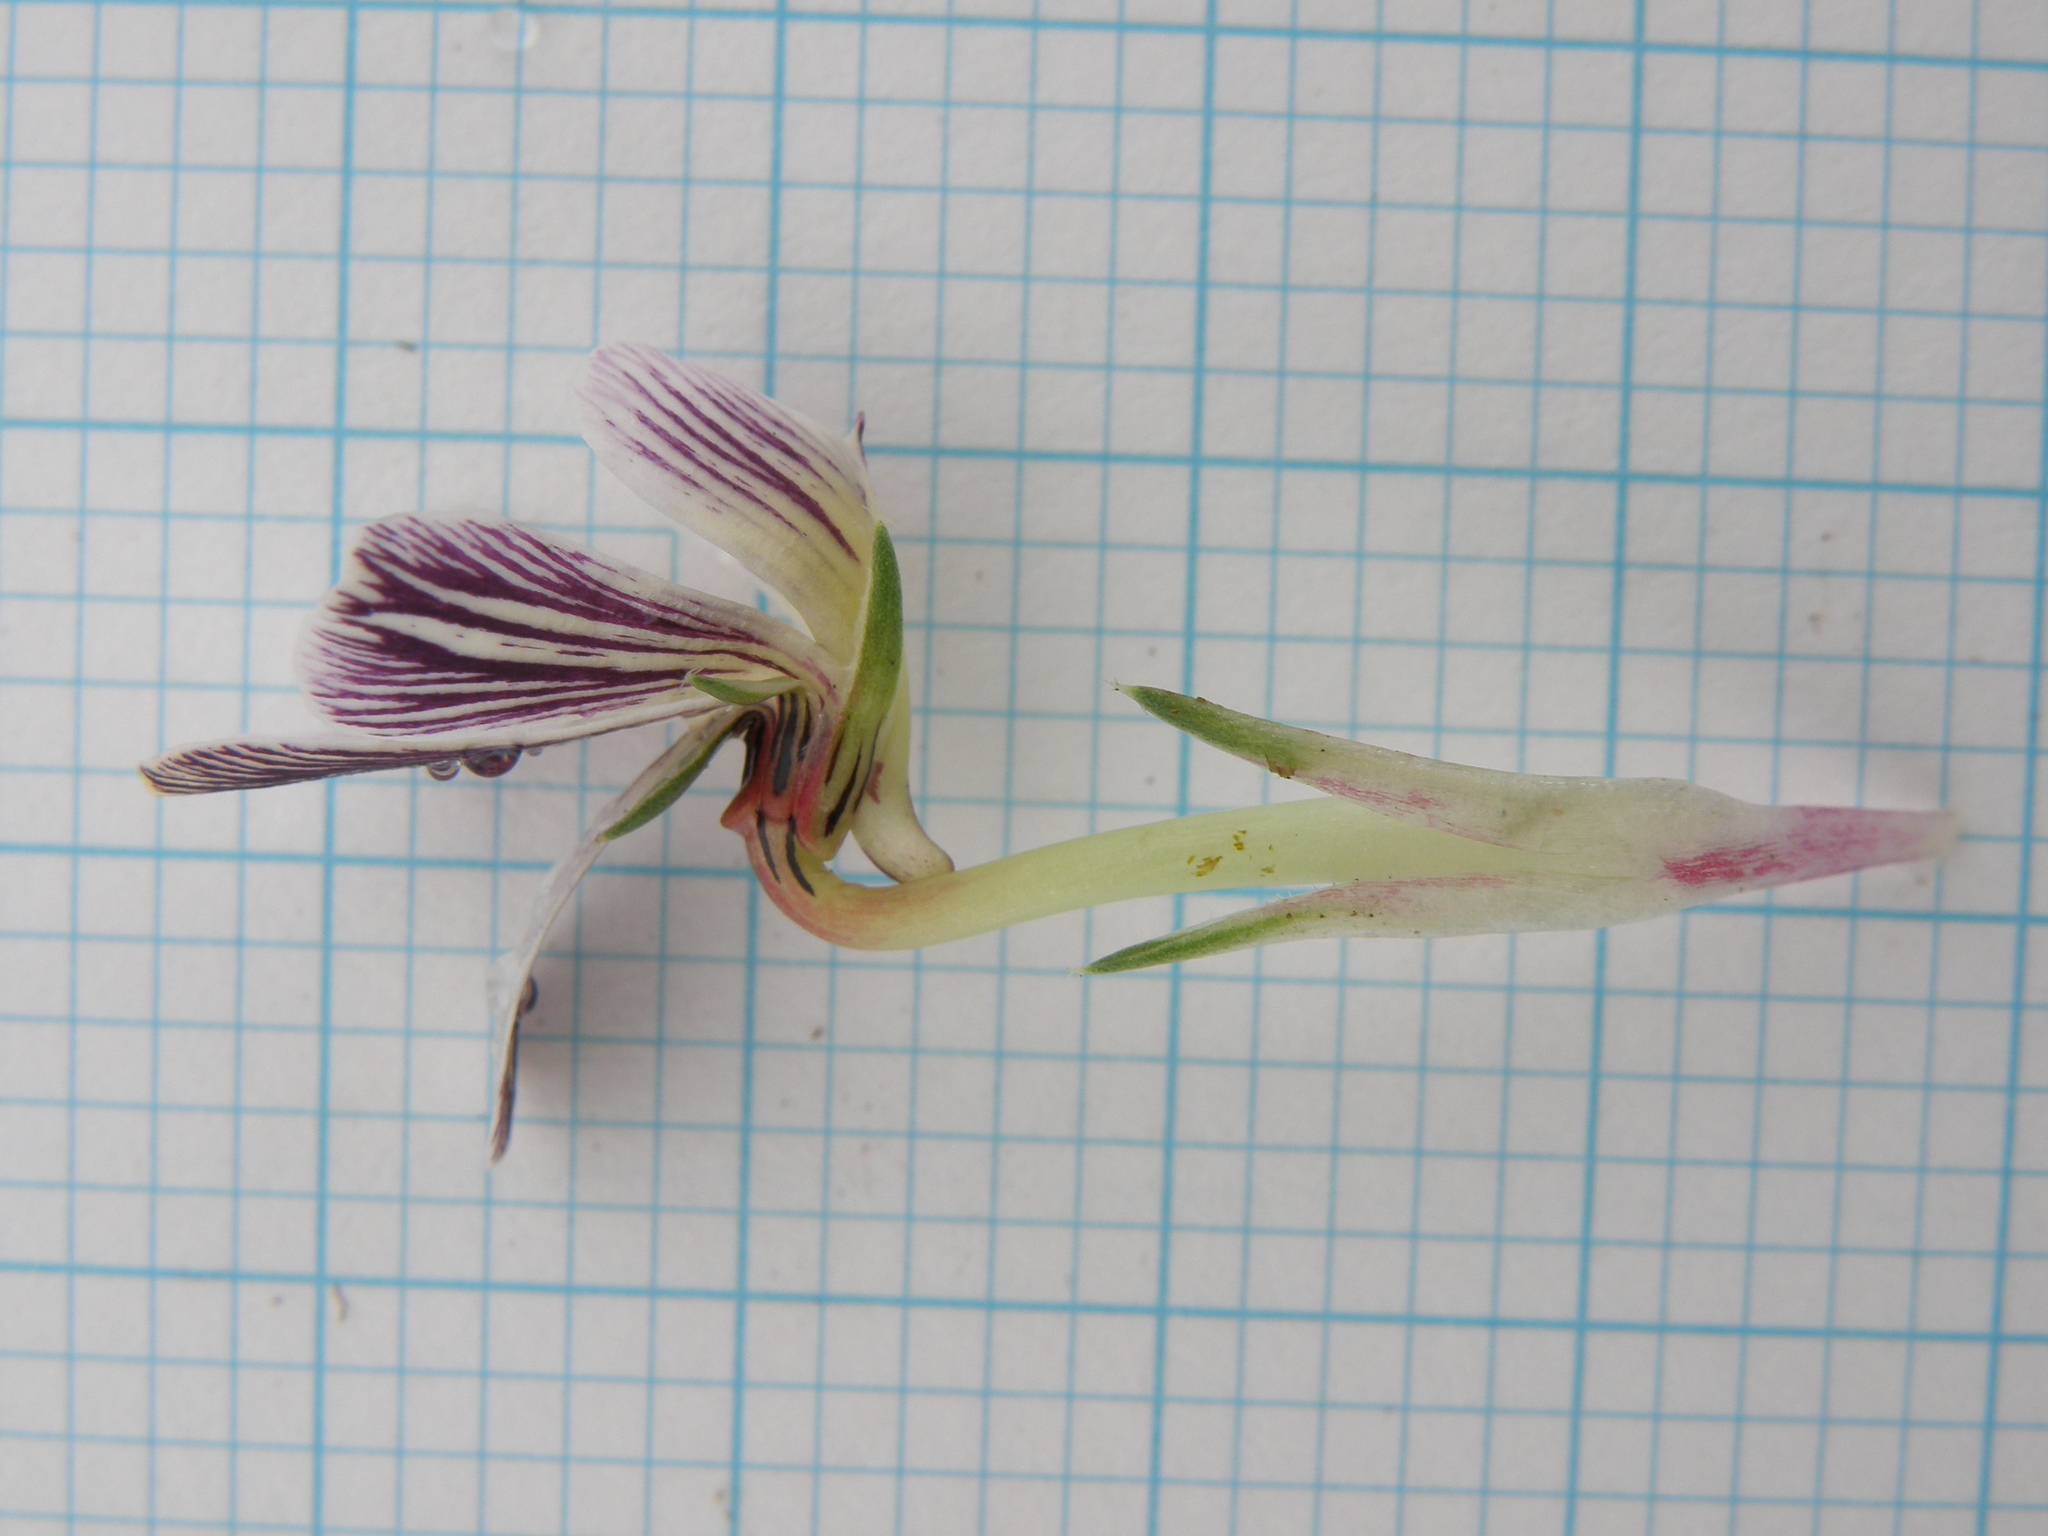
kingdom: Plantae
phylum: Tracheophyta
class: Magnoliopsida
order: Malpighiales
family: Violaceae
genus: Viola
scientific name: Viola pygmaea
